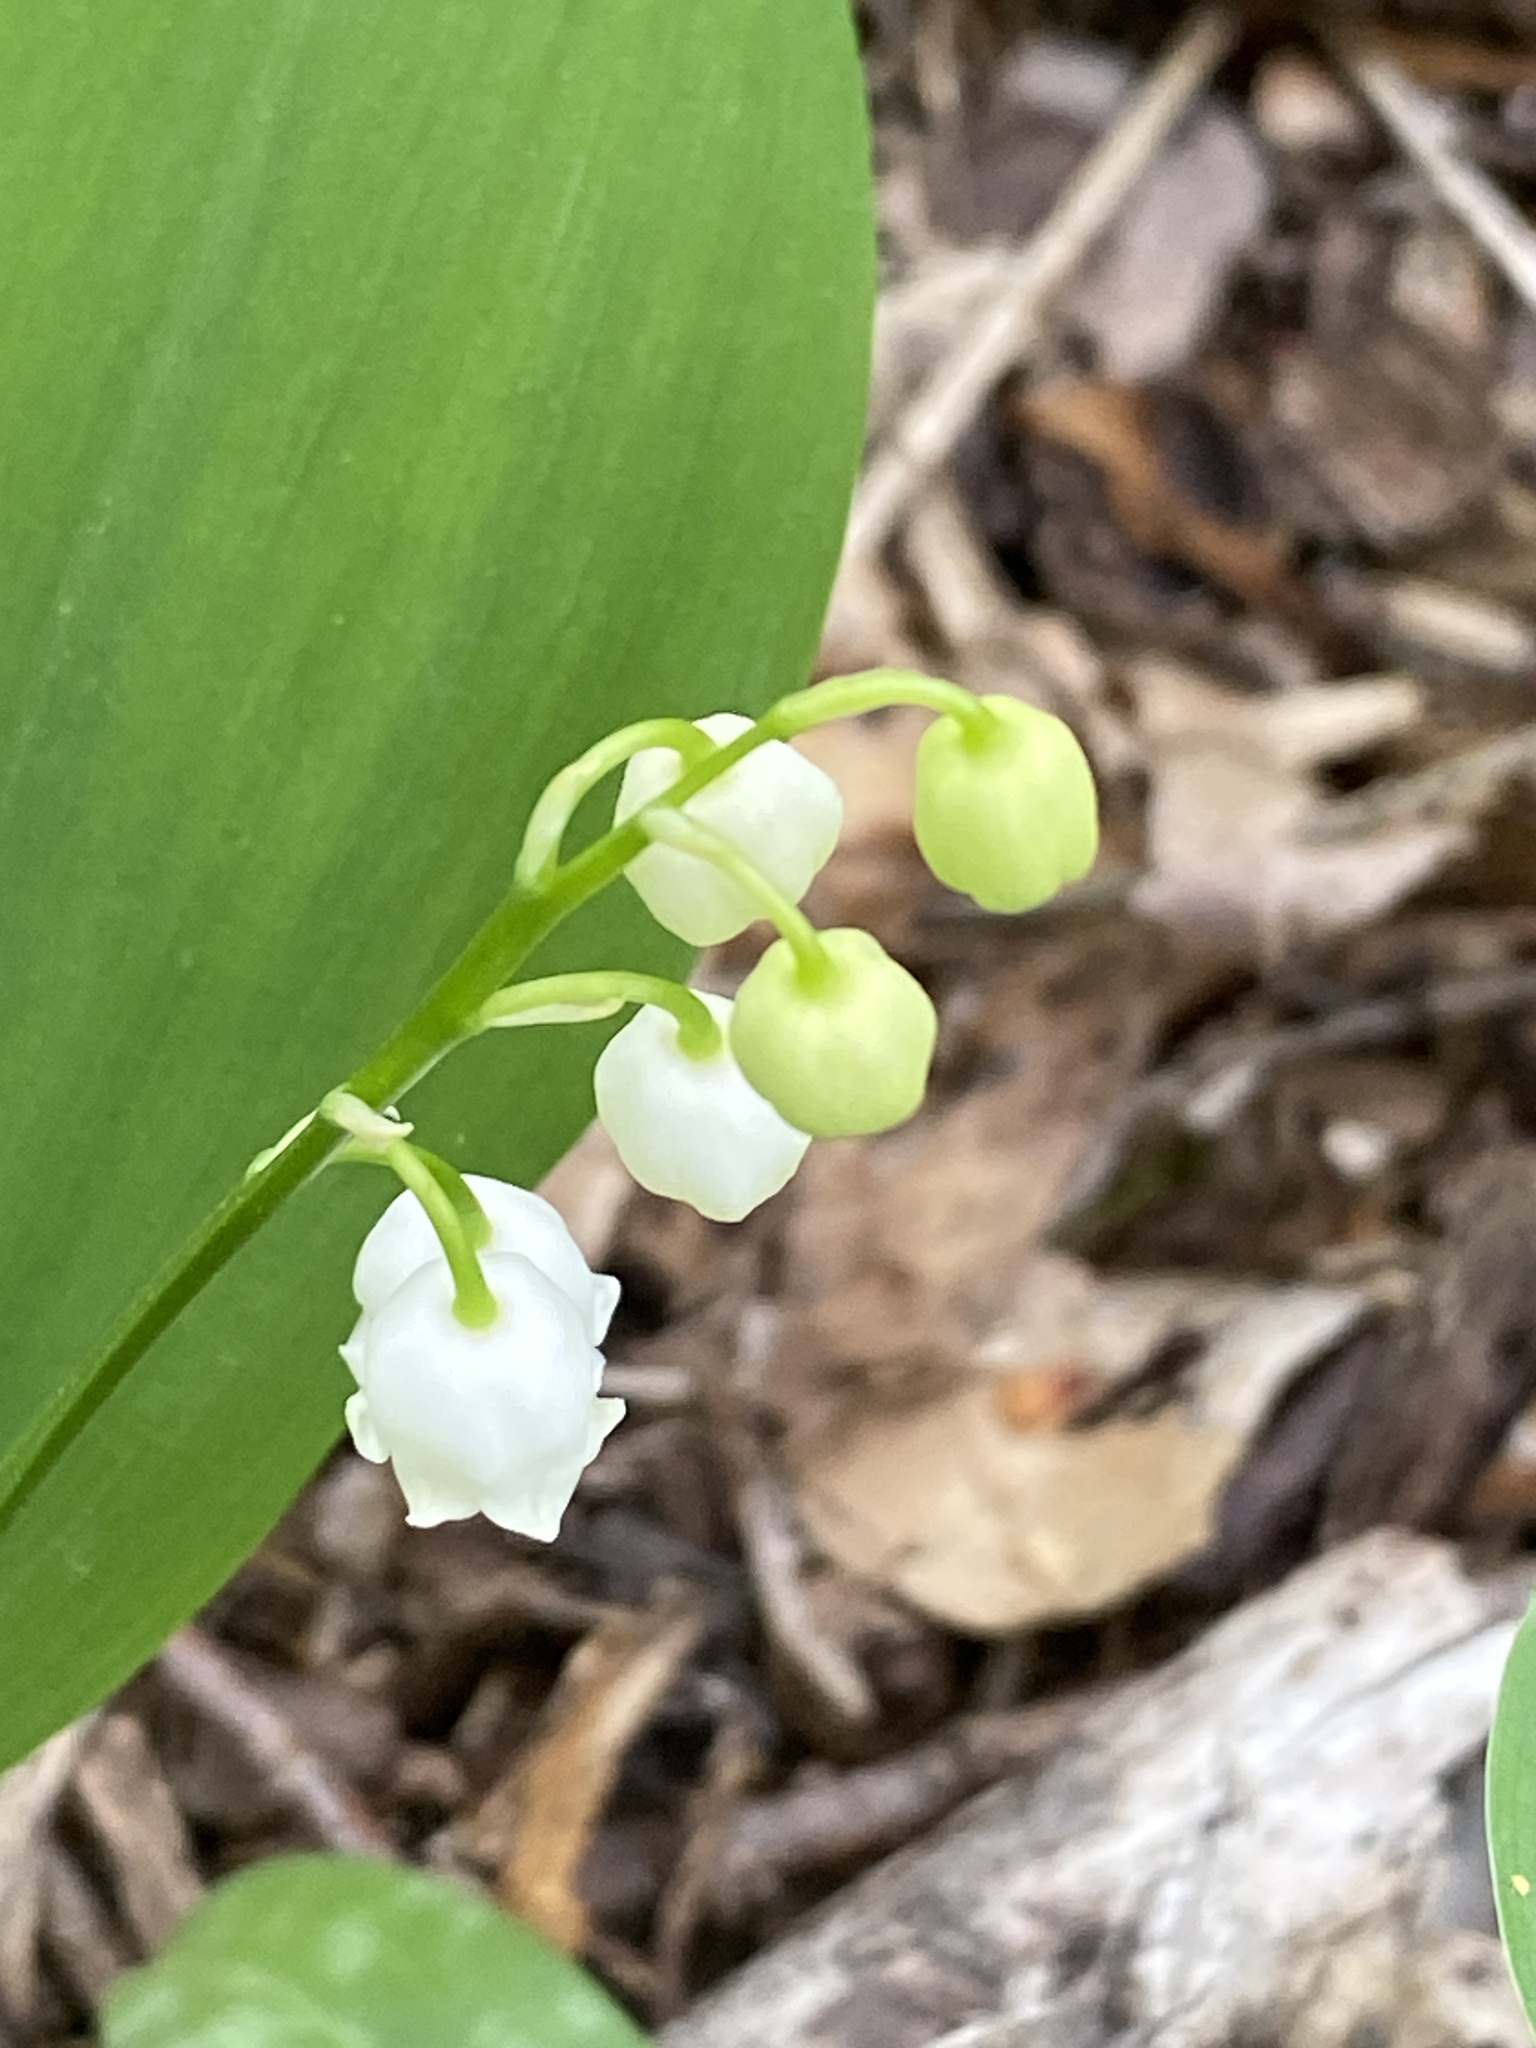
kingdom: Plantae
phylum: Tracheophyta
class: Liliopsida
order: Asparagales
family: Asparagaceae
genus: Convallaria
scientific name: Convallaria majalis
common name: Lily-of-the-valley
